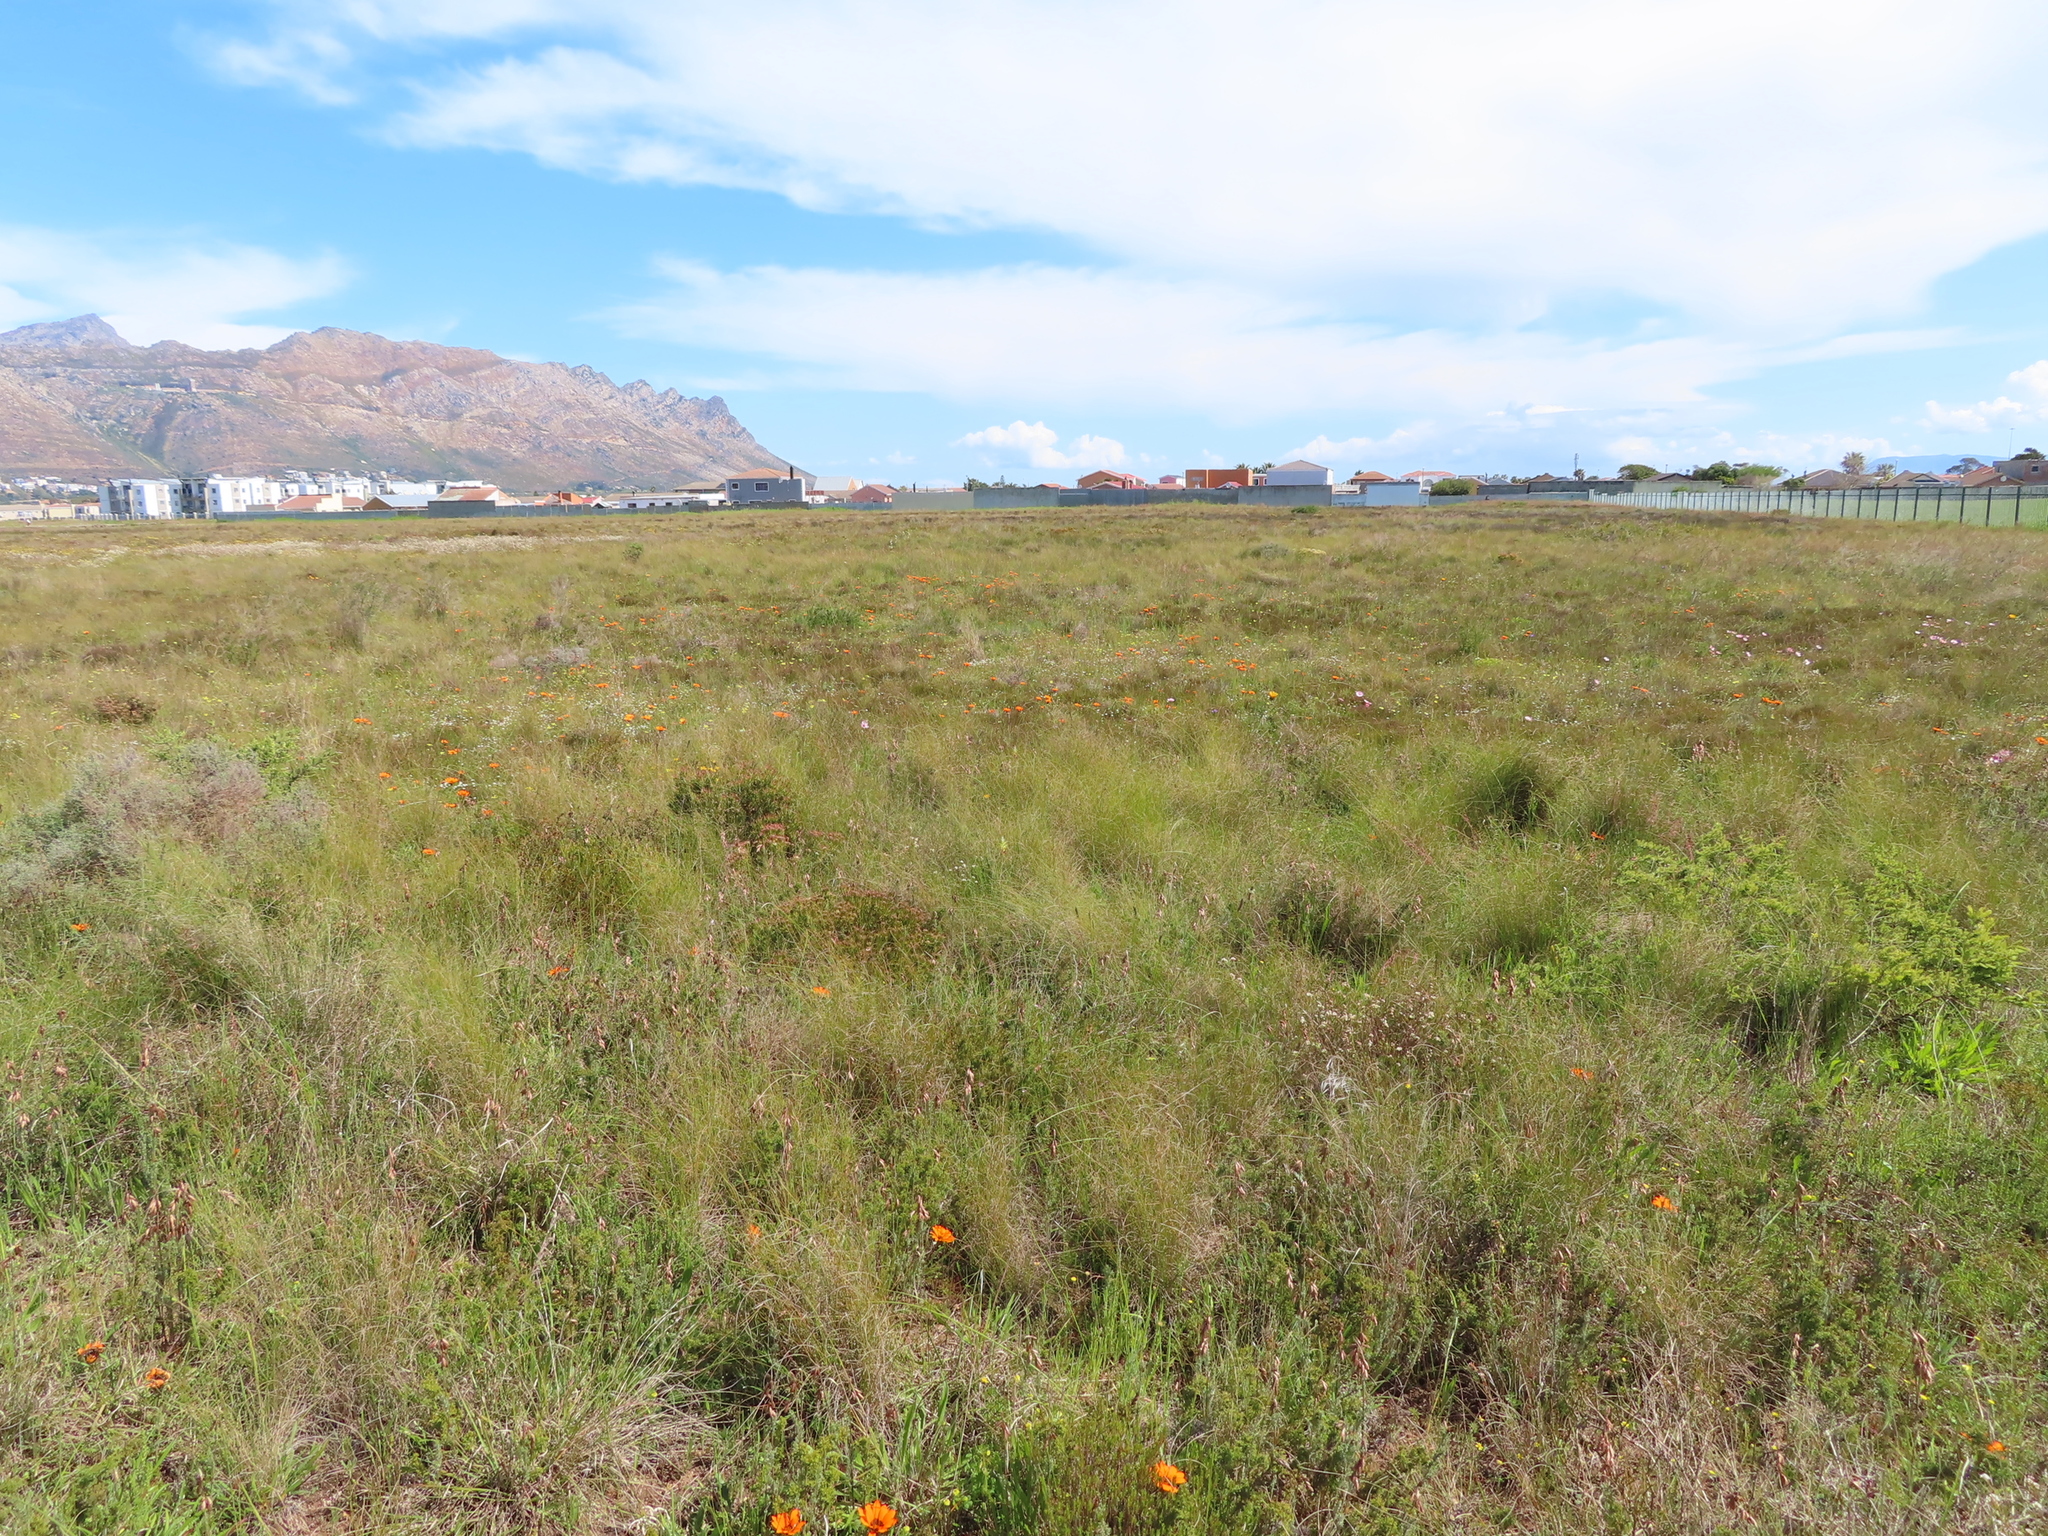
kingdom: Plantae
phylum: Tracheophyta
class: Magnoliopsida
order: Geraniales
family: Geraniaceae
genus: Monsonia
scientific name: Monsonia speciosa
